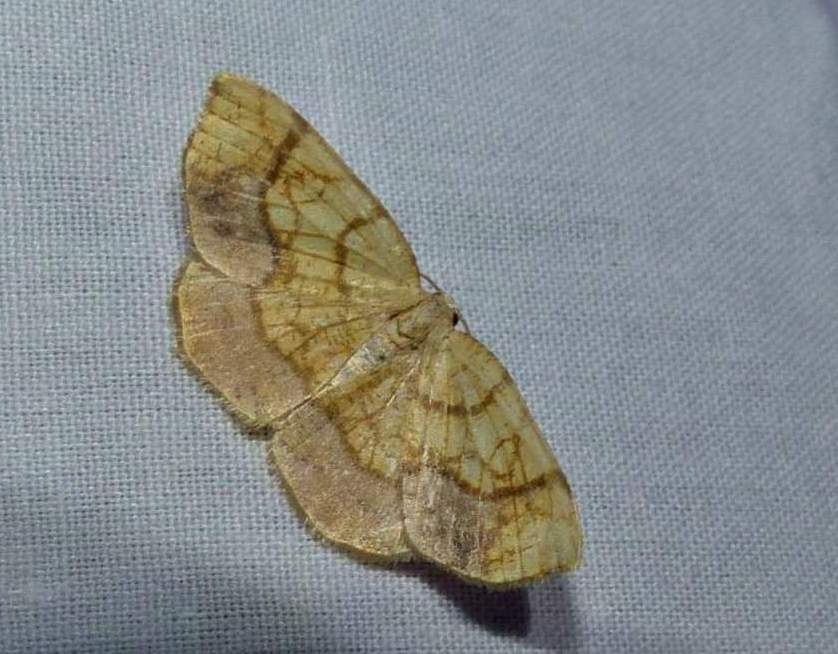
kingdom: Animalia
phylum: Arthropoda
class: Insecta
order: Lepidoptera
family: Geometridae
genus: Nematocampa
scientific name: Nematocampa resistaria
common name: Horned spanworm moth
